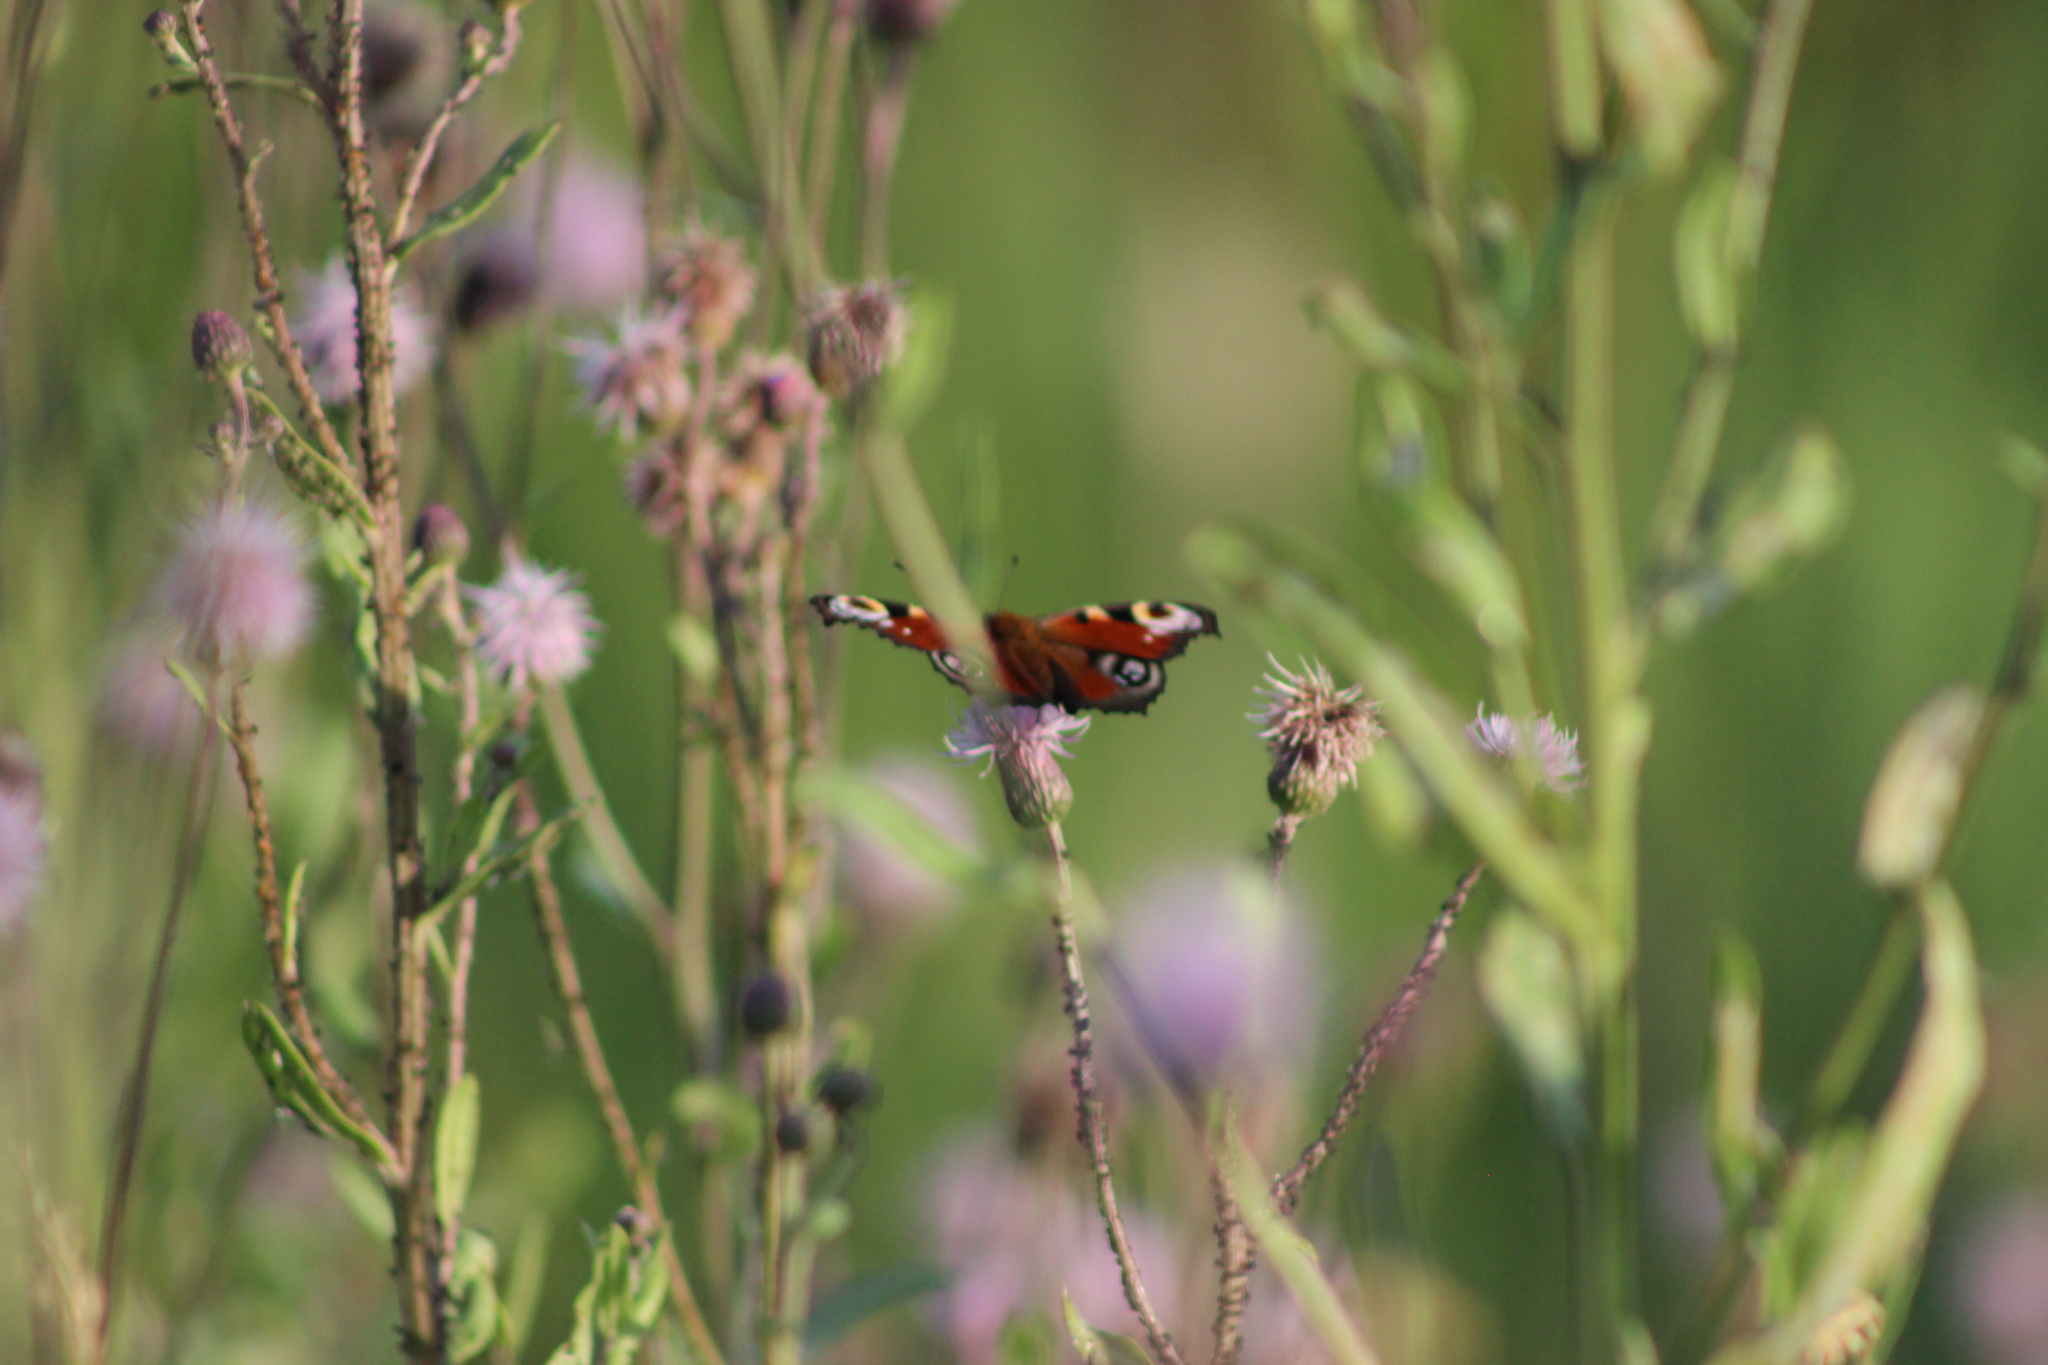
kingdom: Animalia
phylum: Arthropoda
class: Insecta
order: Lepidoptera
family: Nymphalidae
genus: Aglais
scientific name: Aglais io
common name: Peacock
